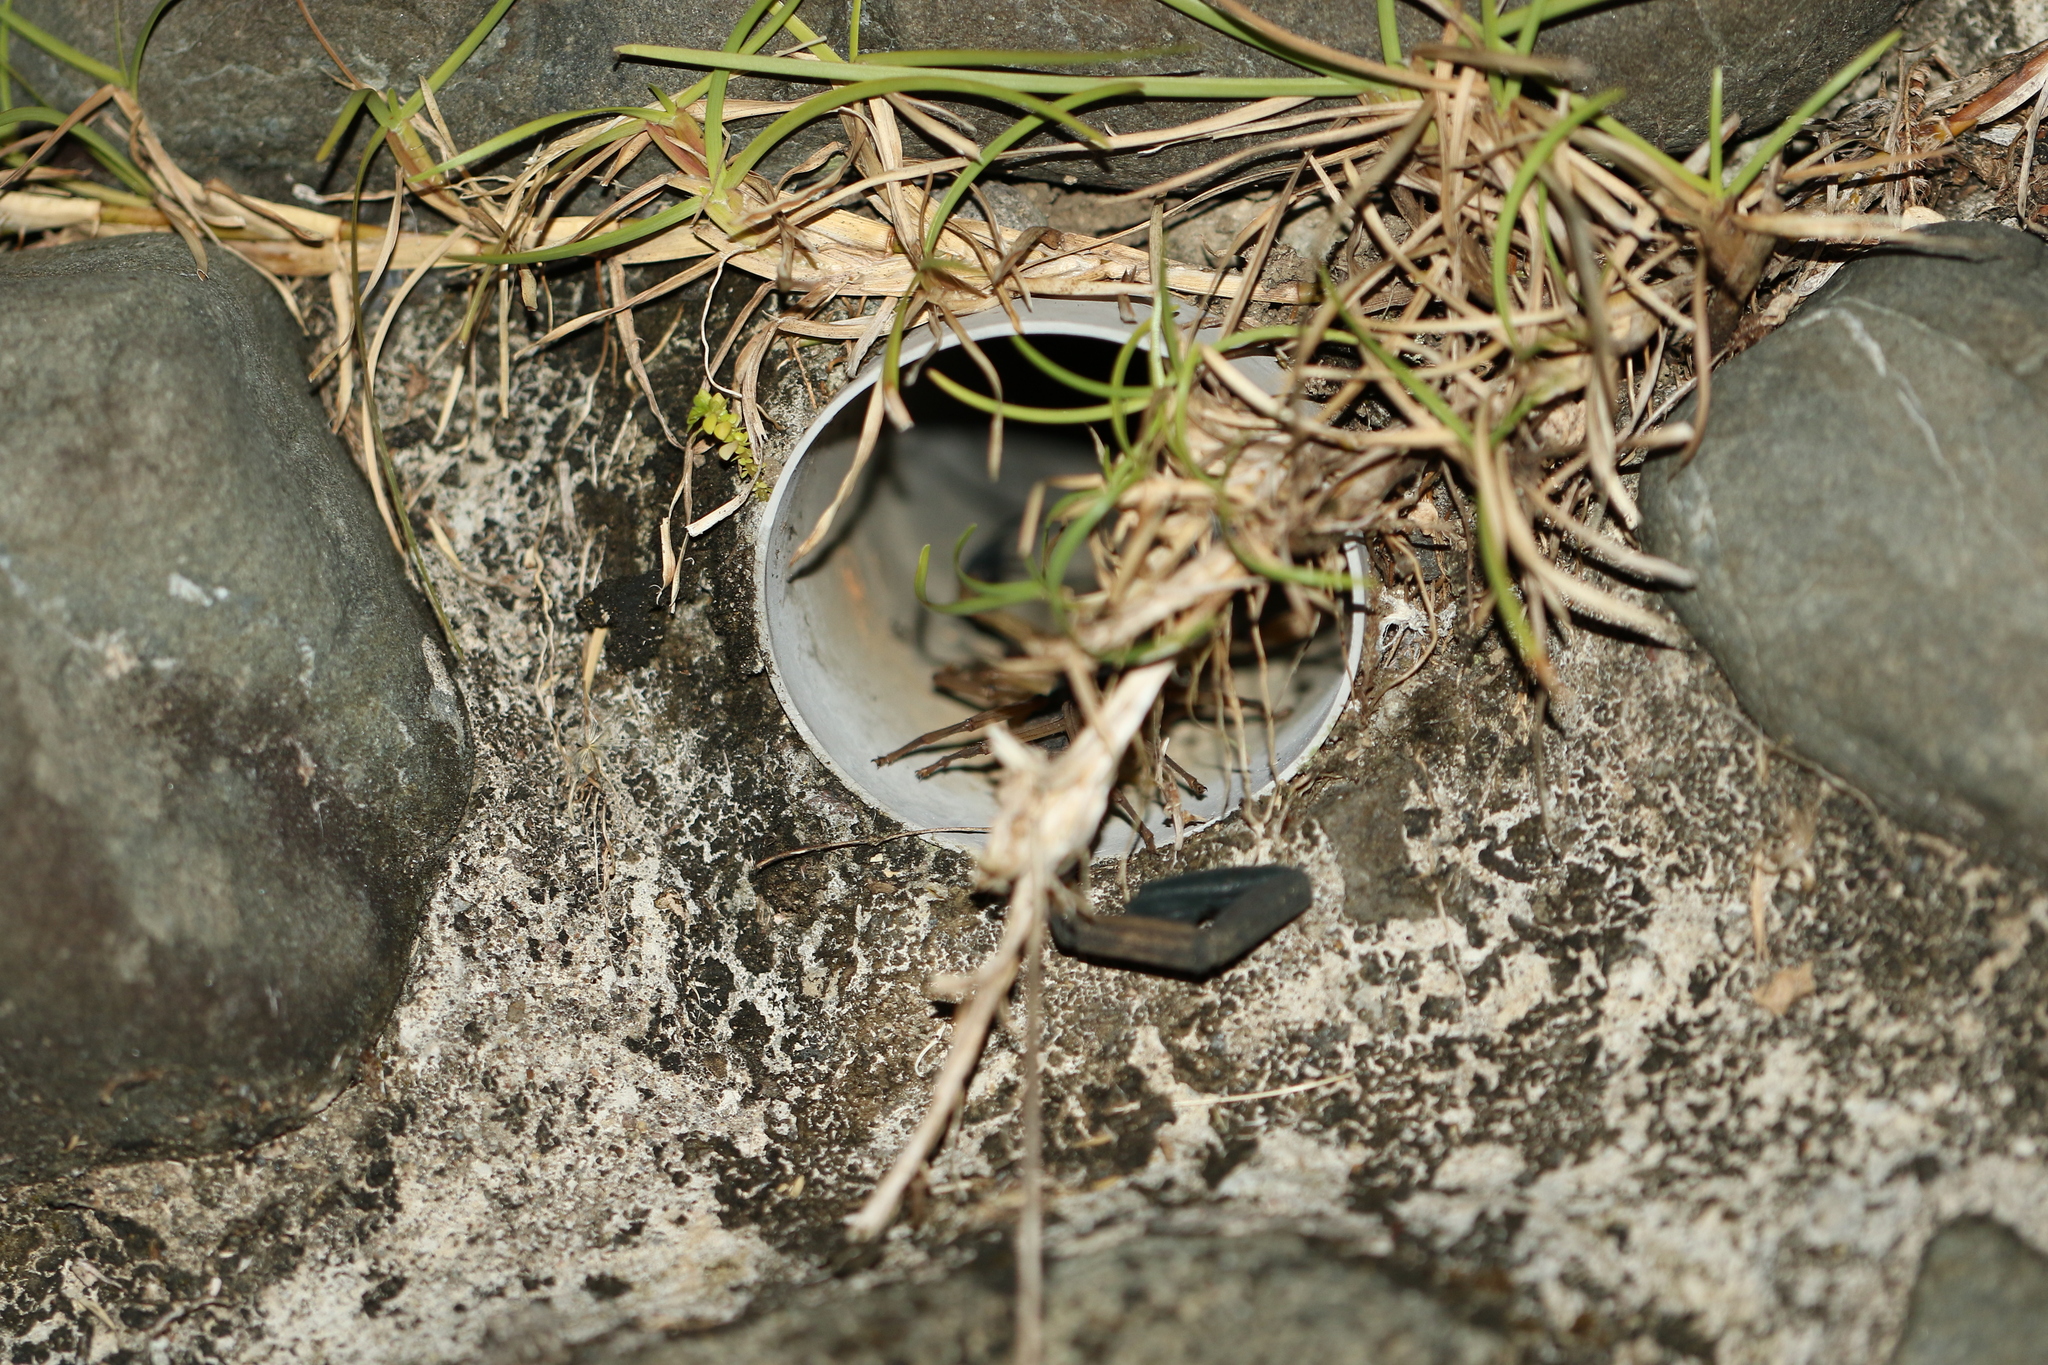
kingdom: Animalia
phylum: Arthropoda
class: Arachnida
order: Scorpiones
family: Buthidae
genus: Centruroides
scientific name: Centruroides bicolor
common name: Scorpions
